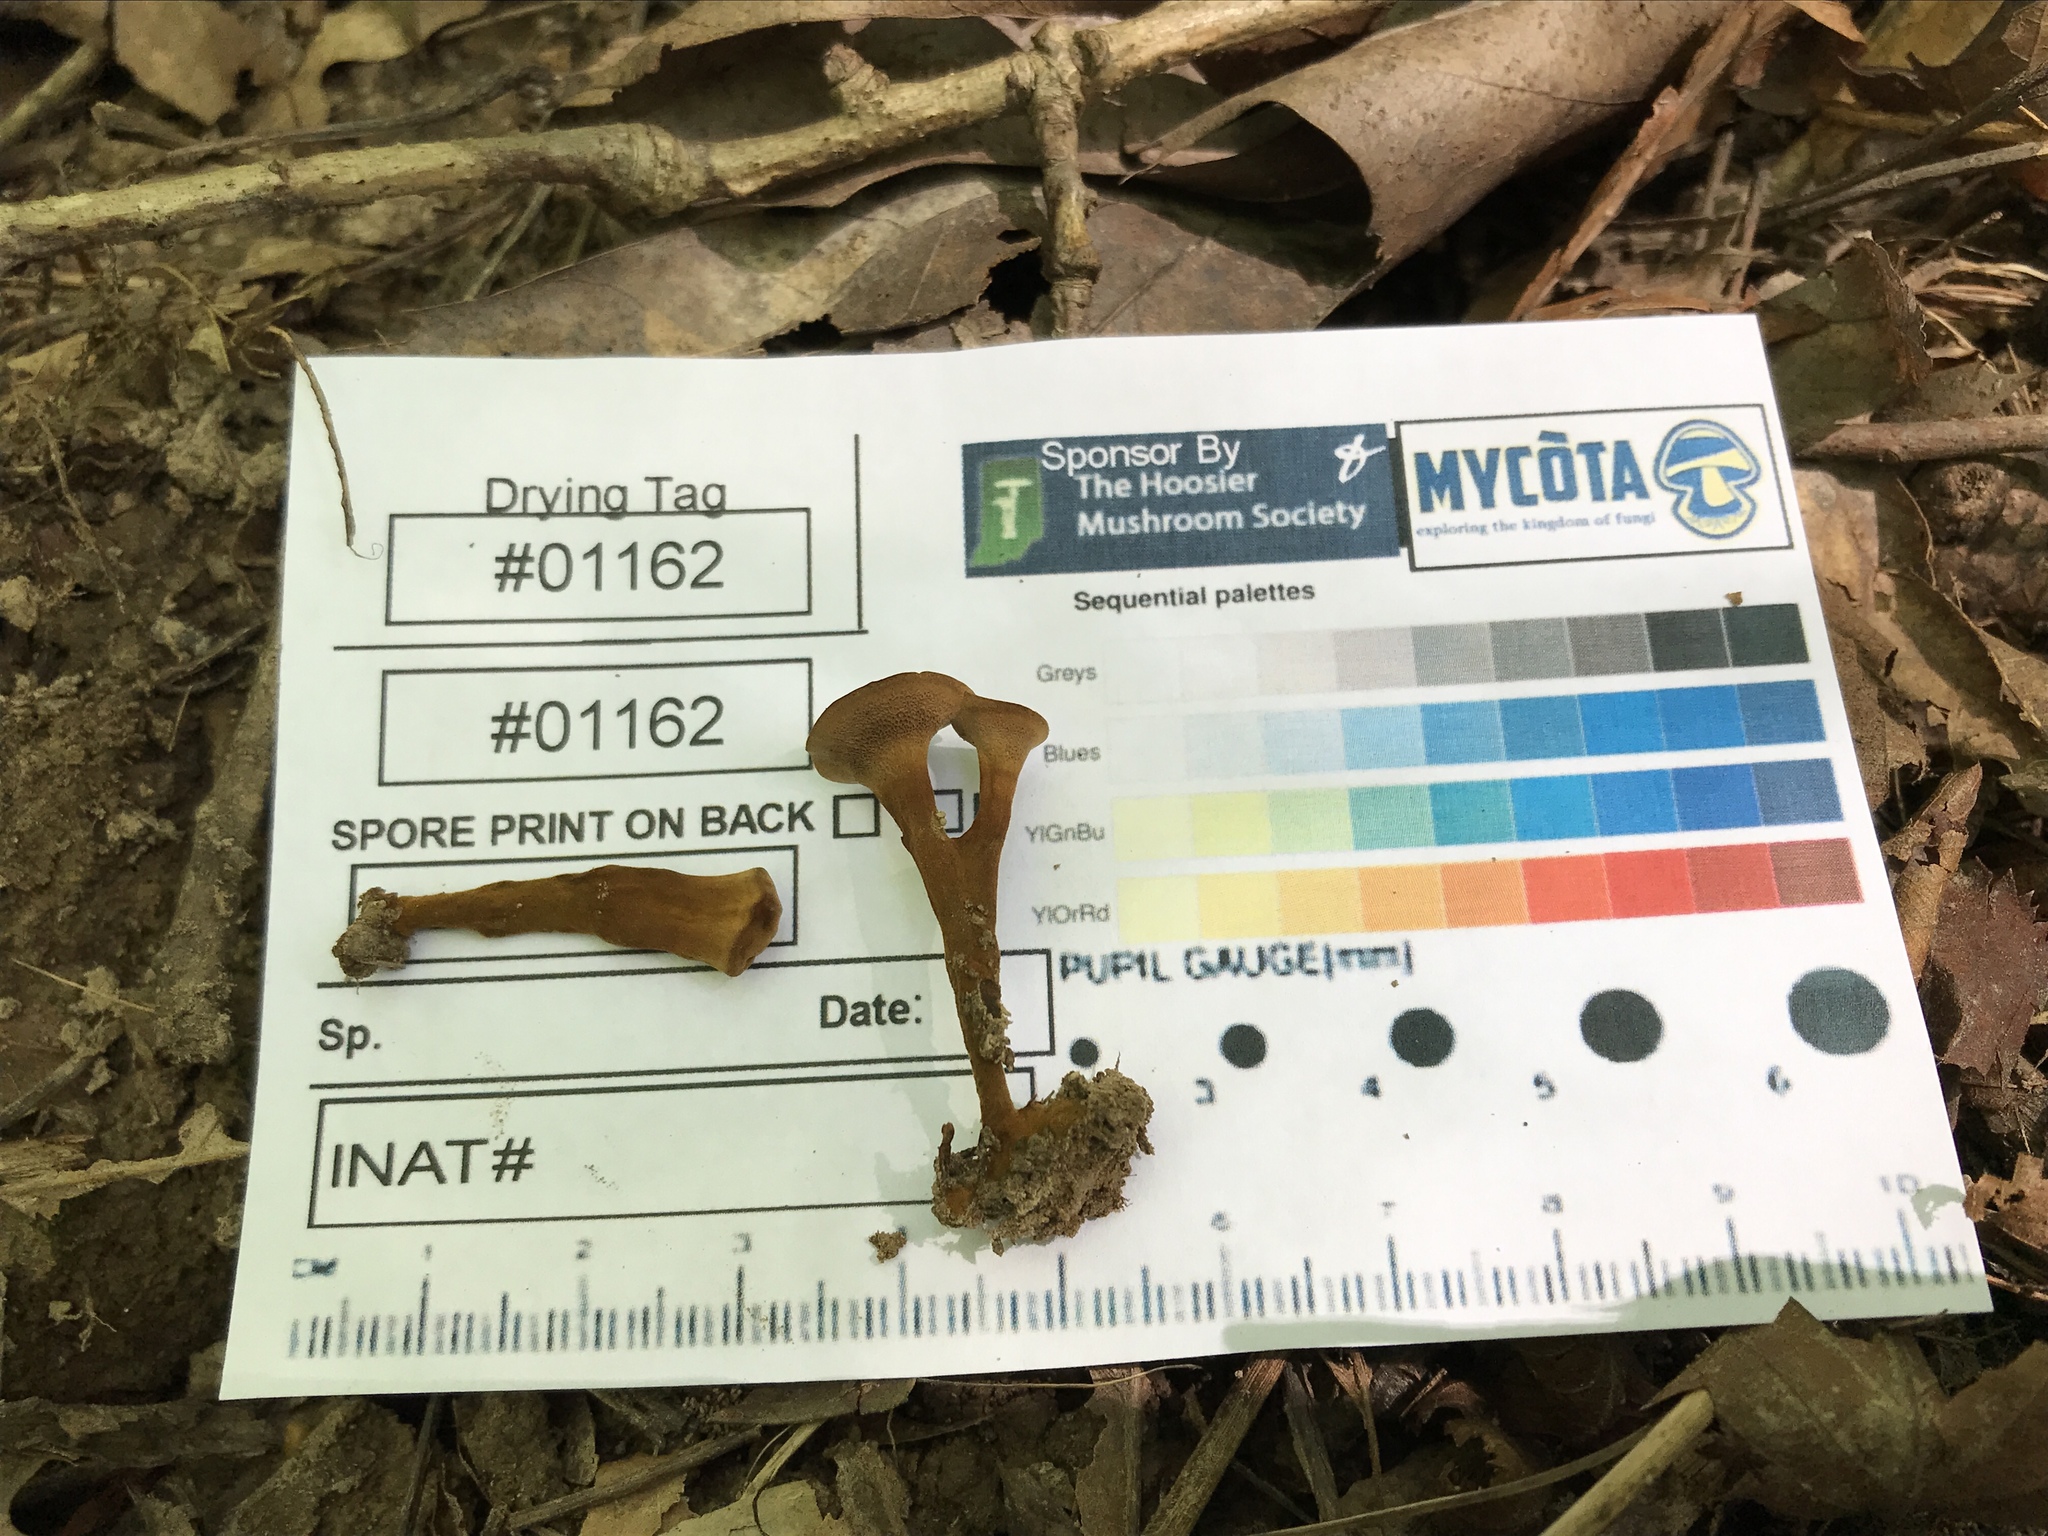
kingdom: Fungi
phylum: Basidiomycota
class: Agaricomycetes
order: Hymenochaetales
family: Hymenochaetaceae
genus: Coltricia
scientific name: Coltricia cinnamomea
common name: Shiny cinnamon polypore
